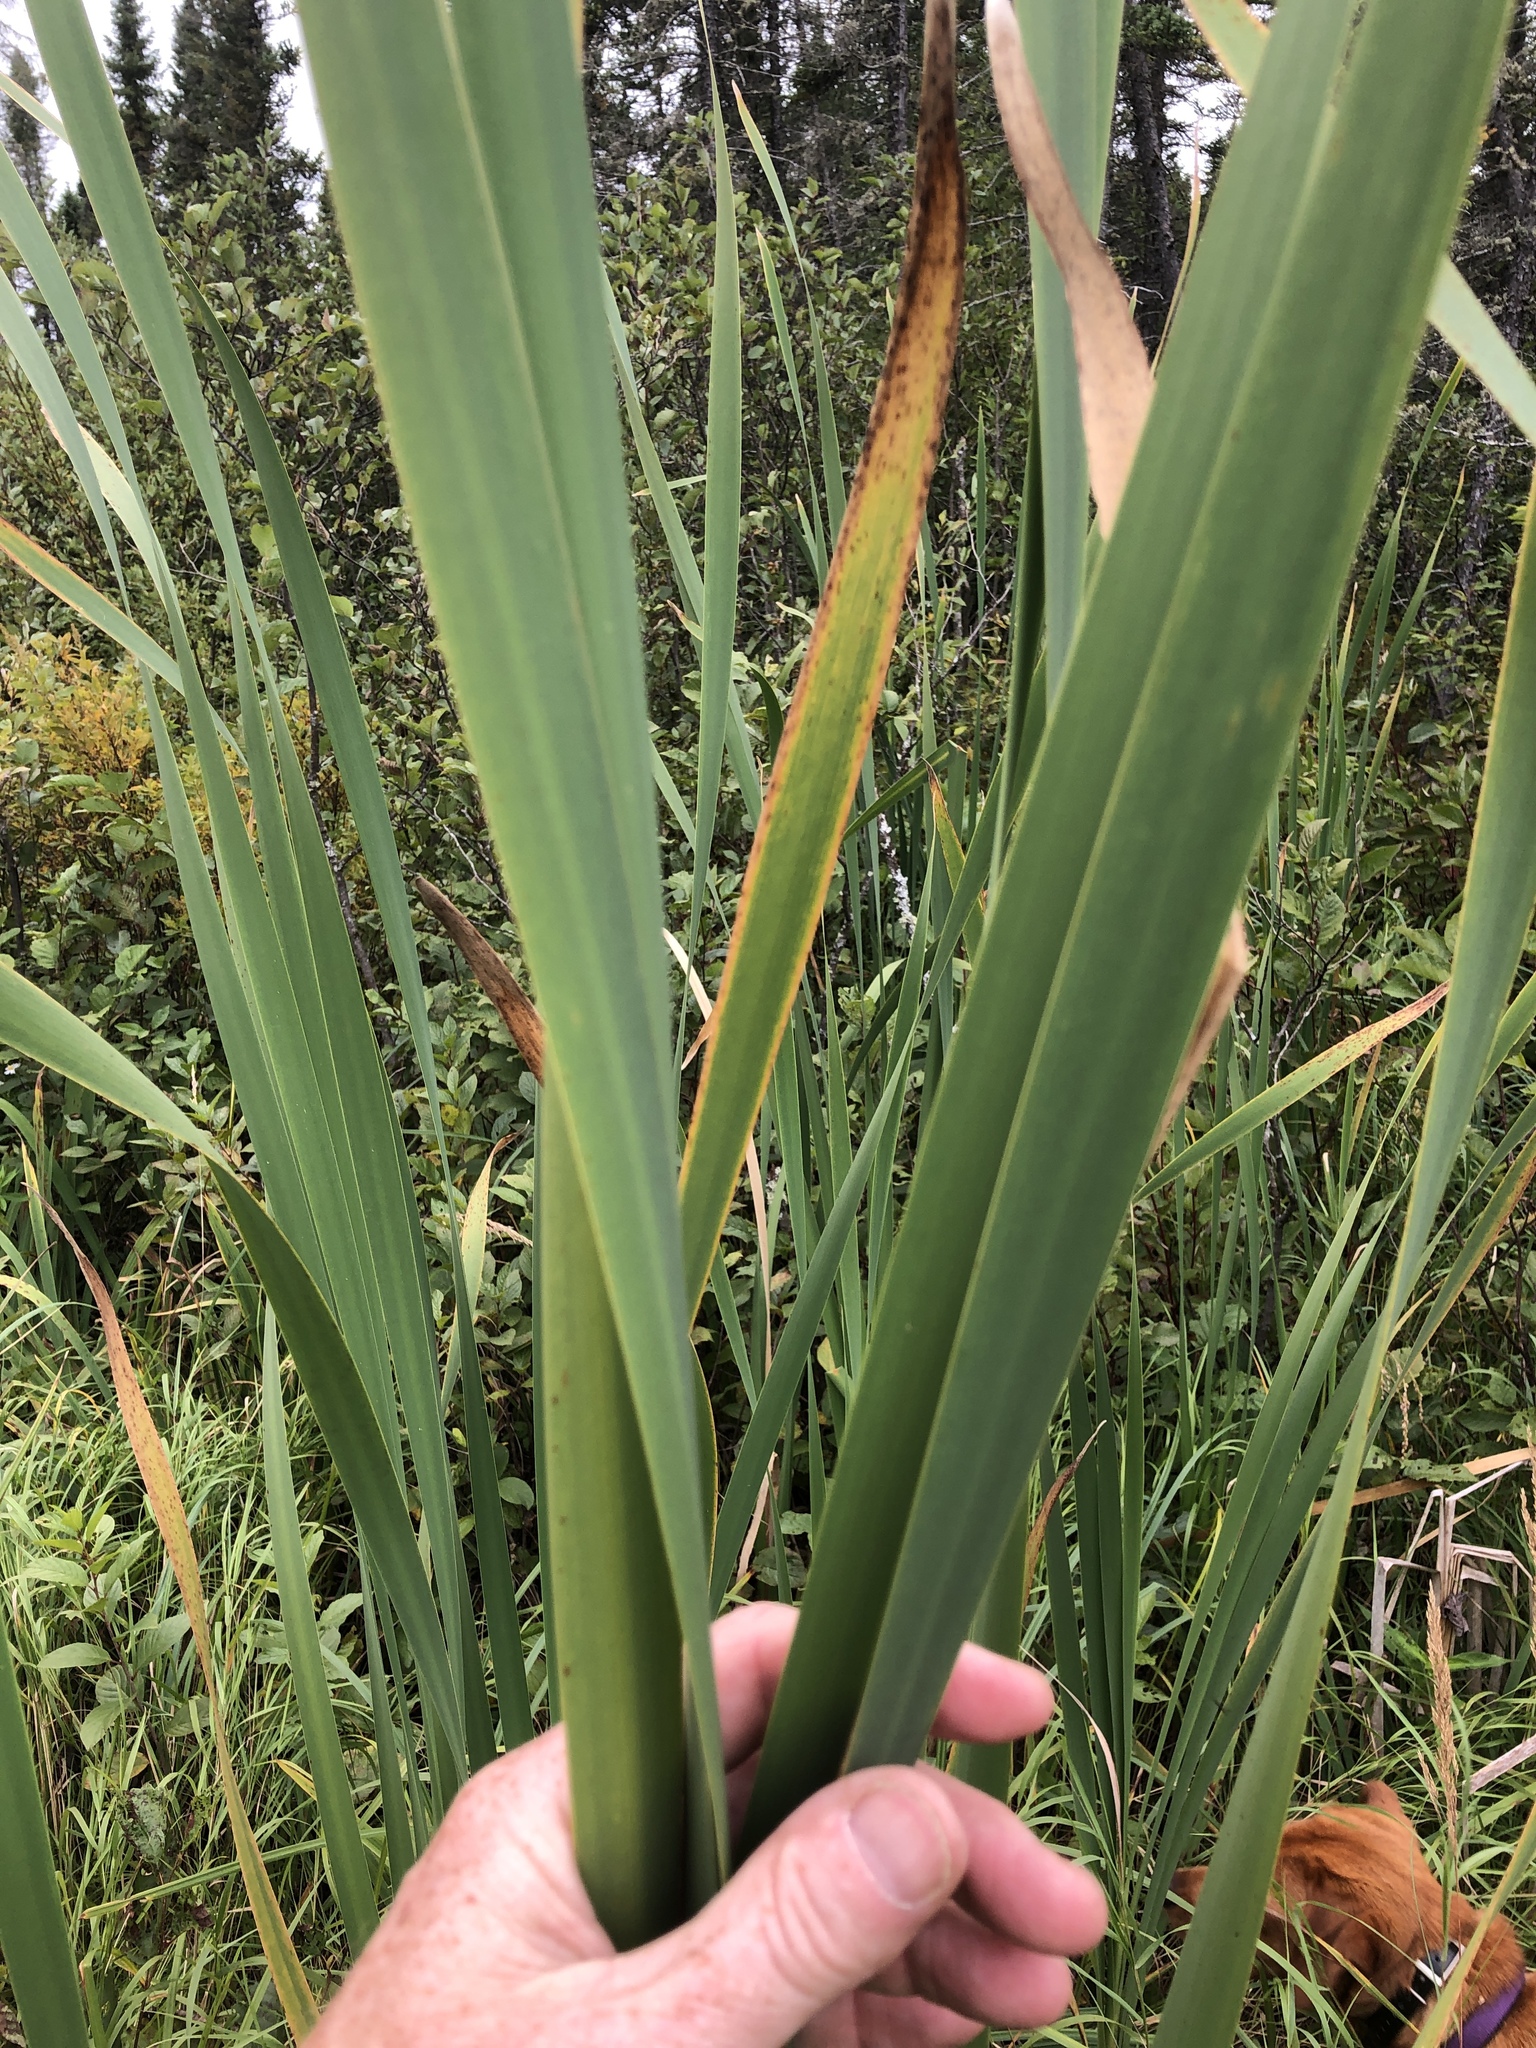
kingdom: Plantae
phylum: Tracheophyta
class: Liliopsida
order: Poales
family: Typhaceae
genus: Typha
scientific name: Typha latifolia
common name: Broadleaf cattail
